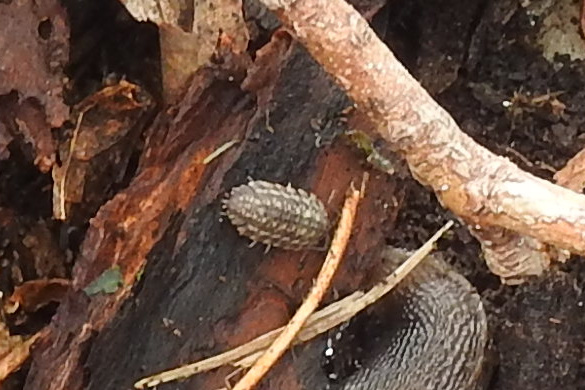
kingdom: Animalia
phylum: Arthropoda
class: Malacostraca
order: Isopoda
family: Oniscidae
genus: Oniscus
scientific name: Oniscus asellus
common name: Common shiny woodlouse
